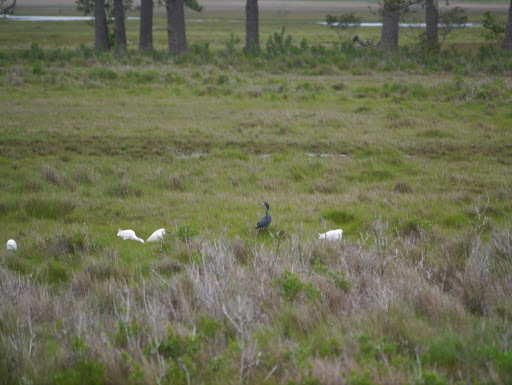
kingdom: Animalia
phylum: Chordata
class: Aves
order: Pelecaniformes
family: Ardeidae
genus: Egretta
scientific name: Egretta caerulea
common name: Little blue heron
